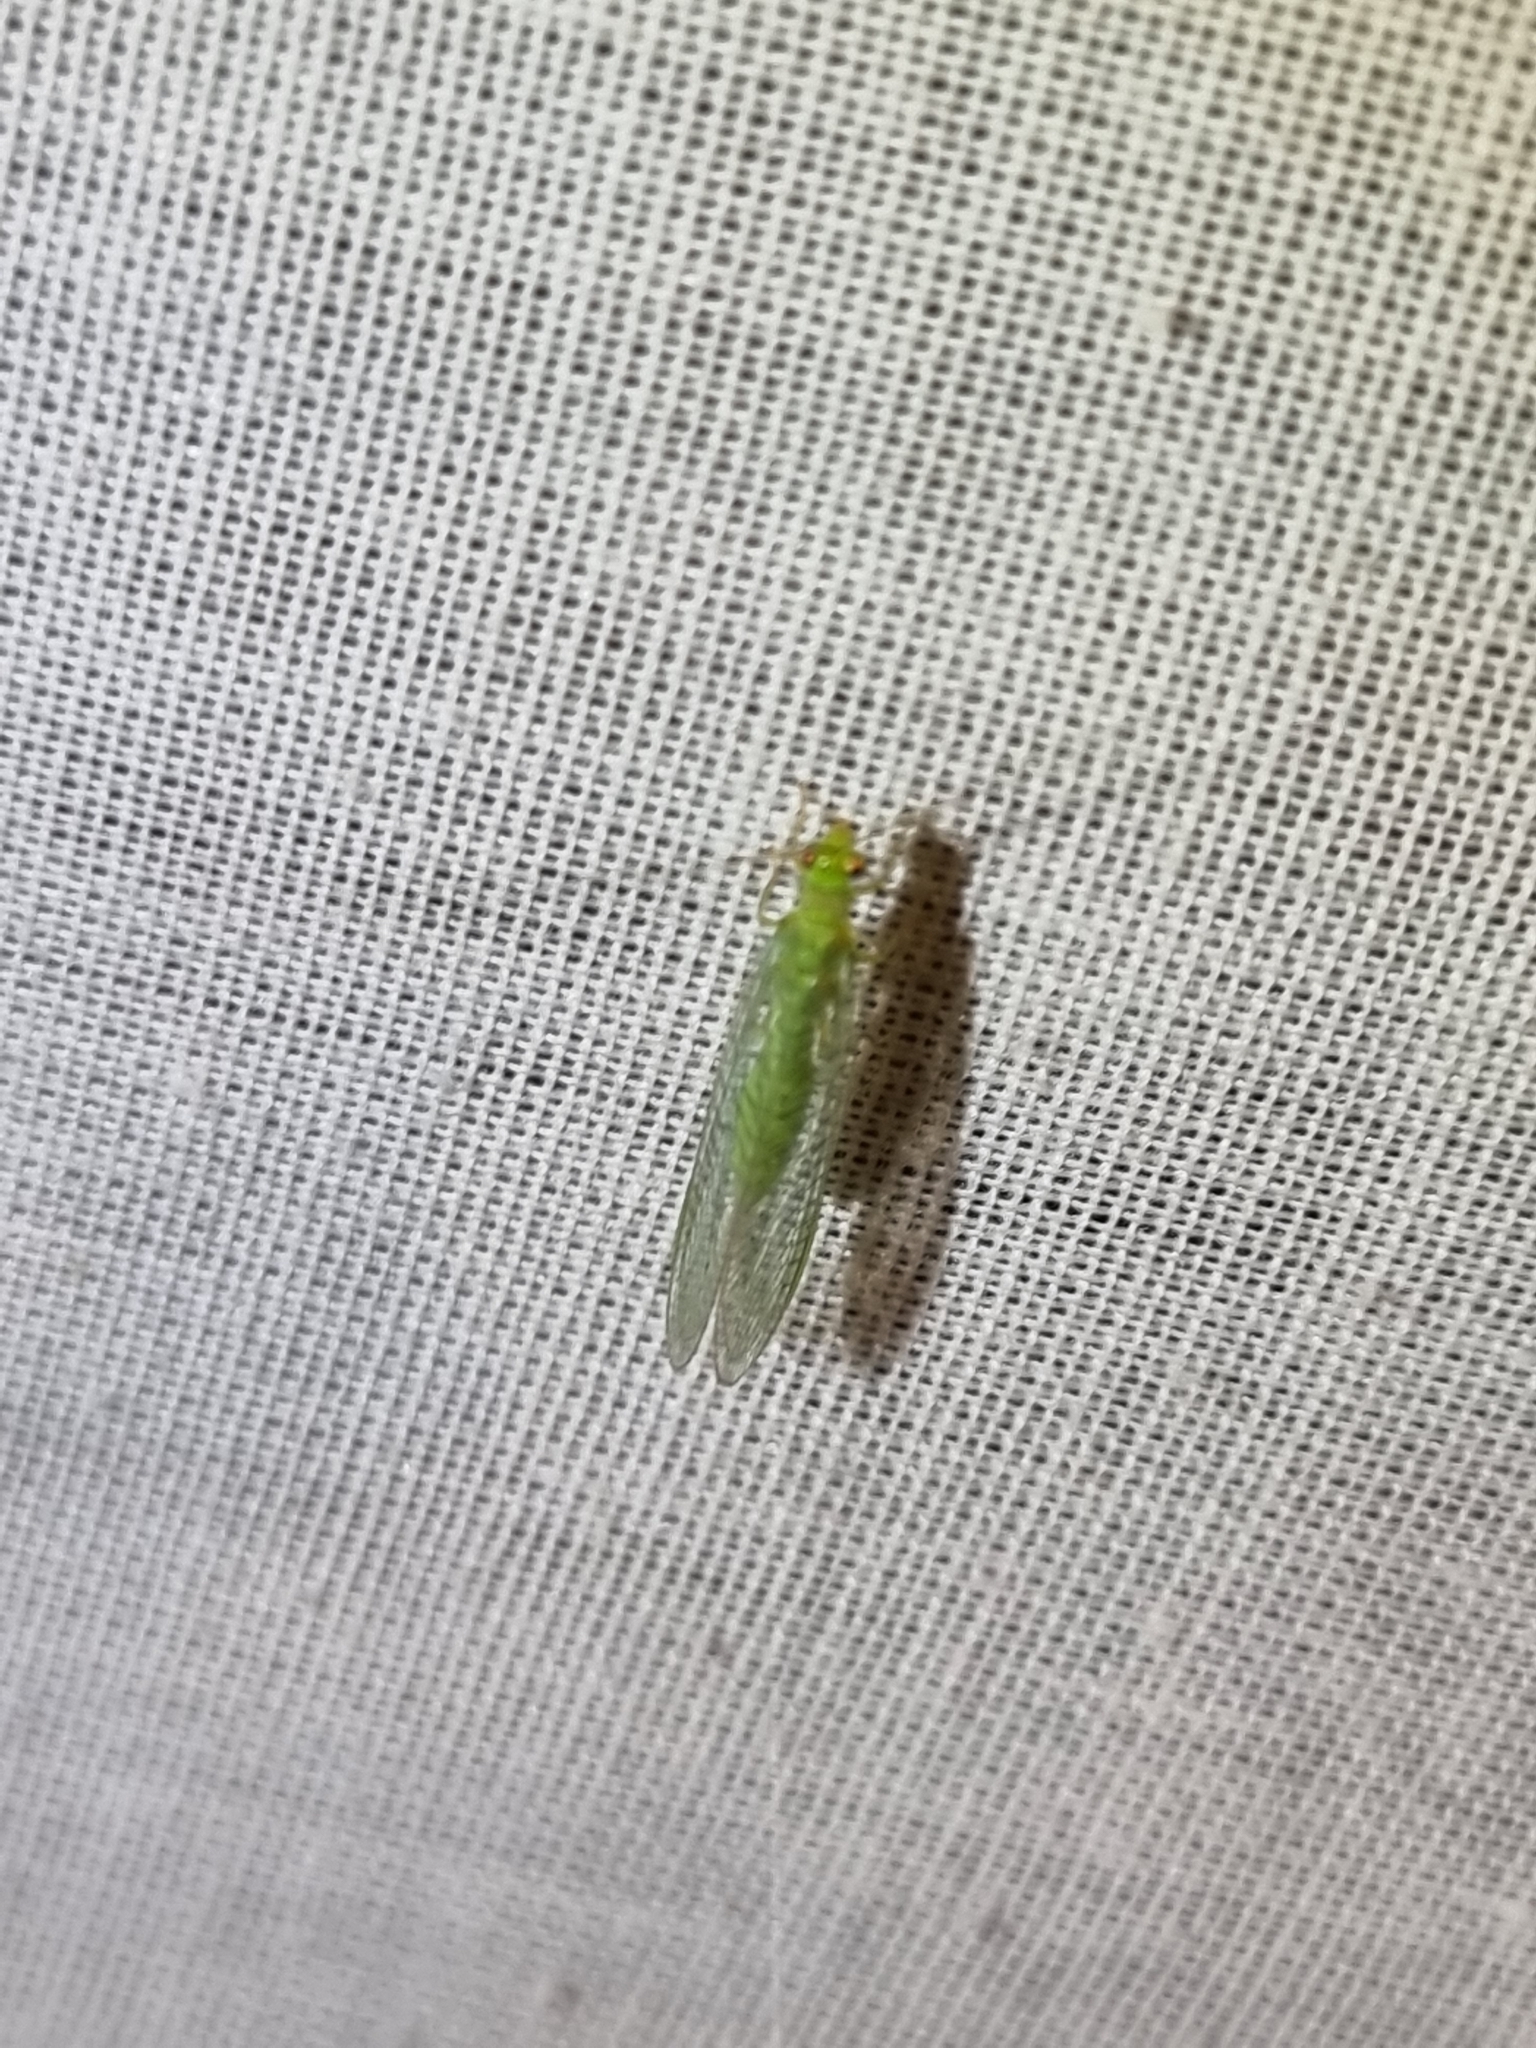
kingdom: Animalia
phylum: Arthropoda
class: Insecta
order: Neuroptera
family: Chrysopidae
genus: Mallada
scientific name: Mallada signatus
